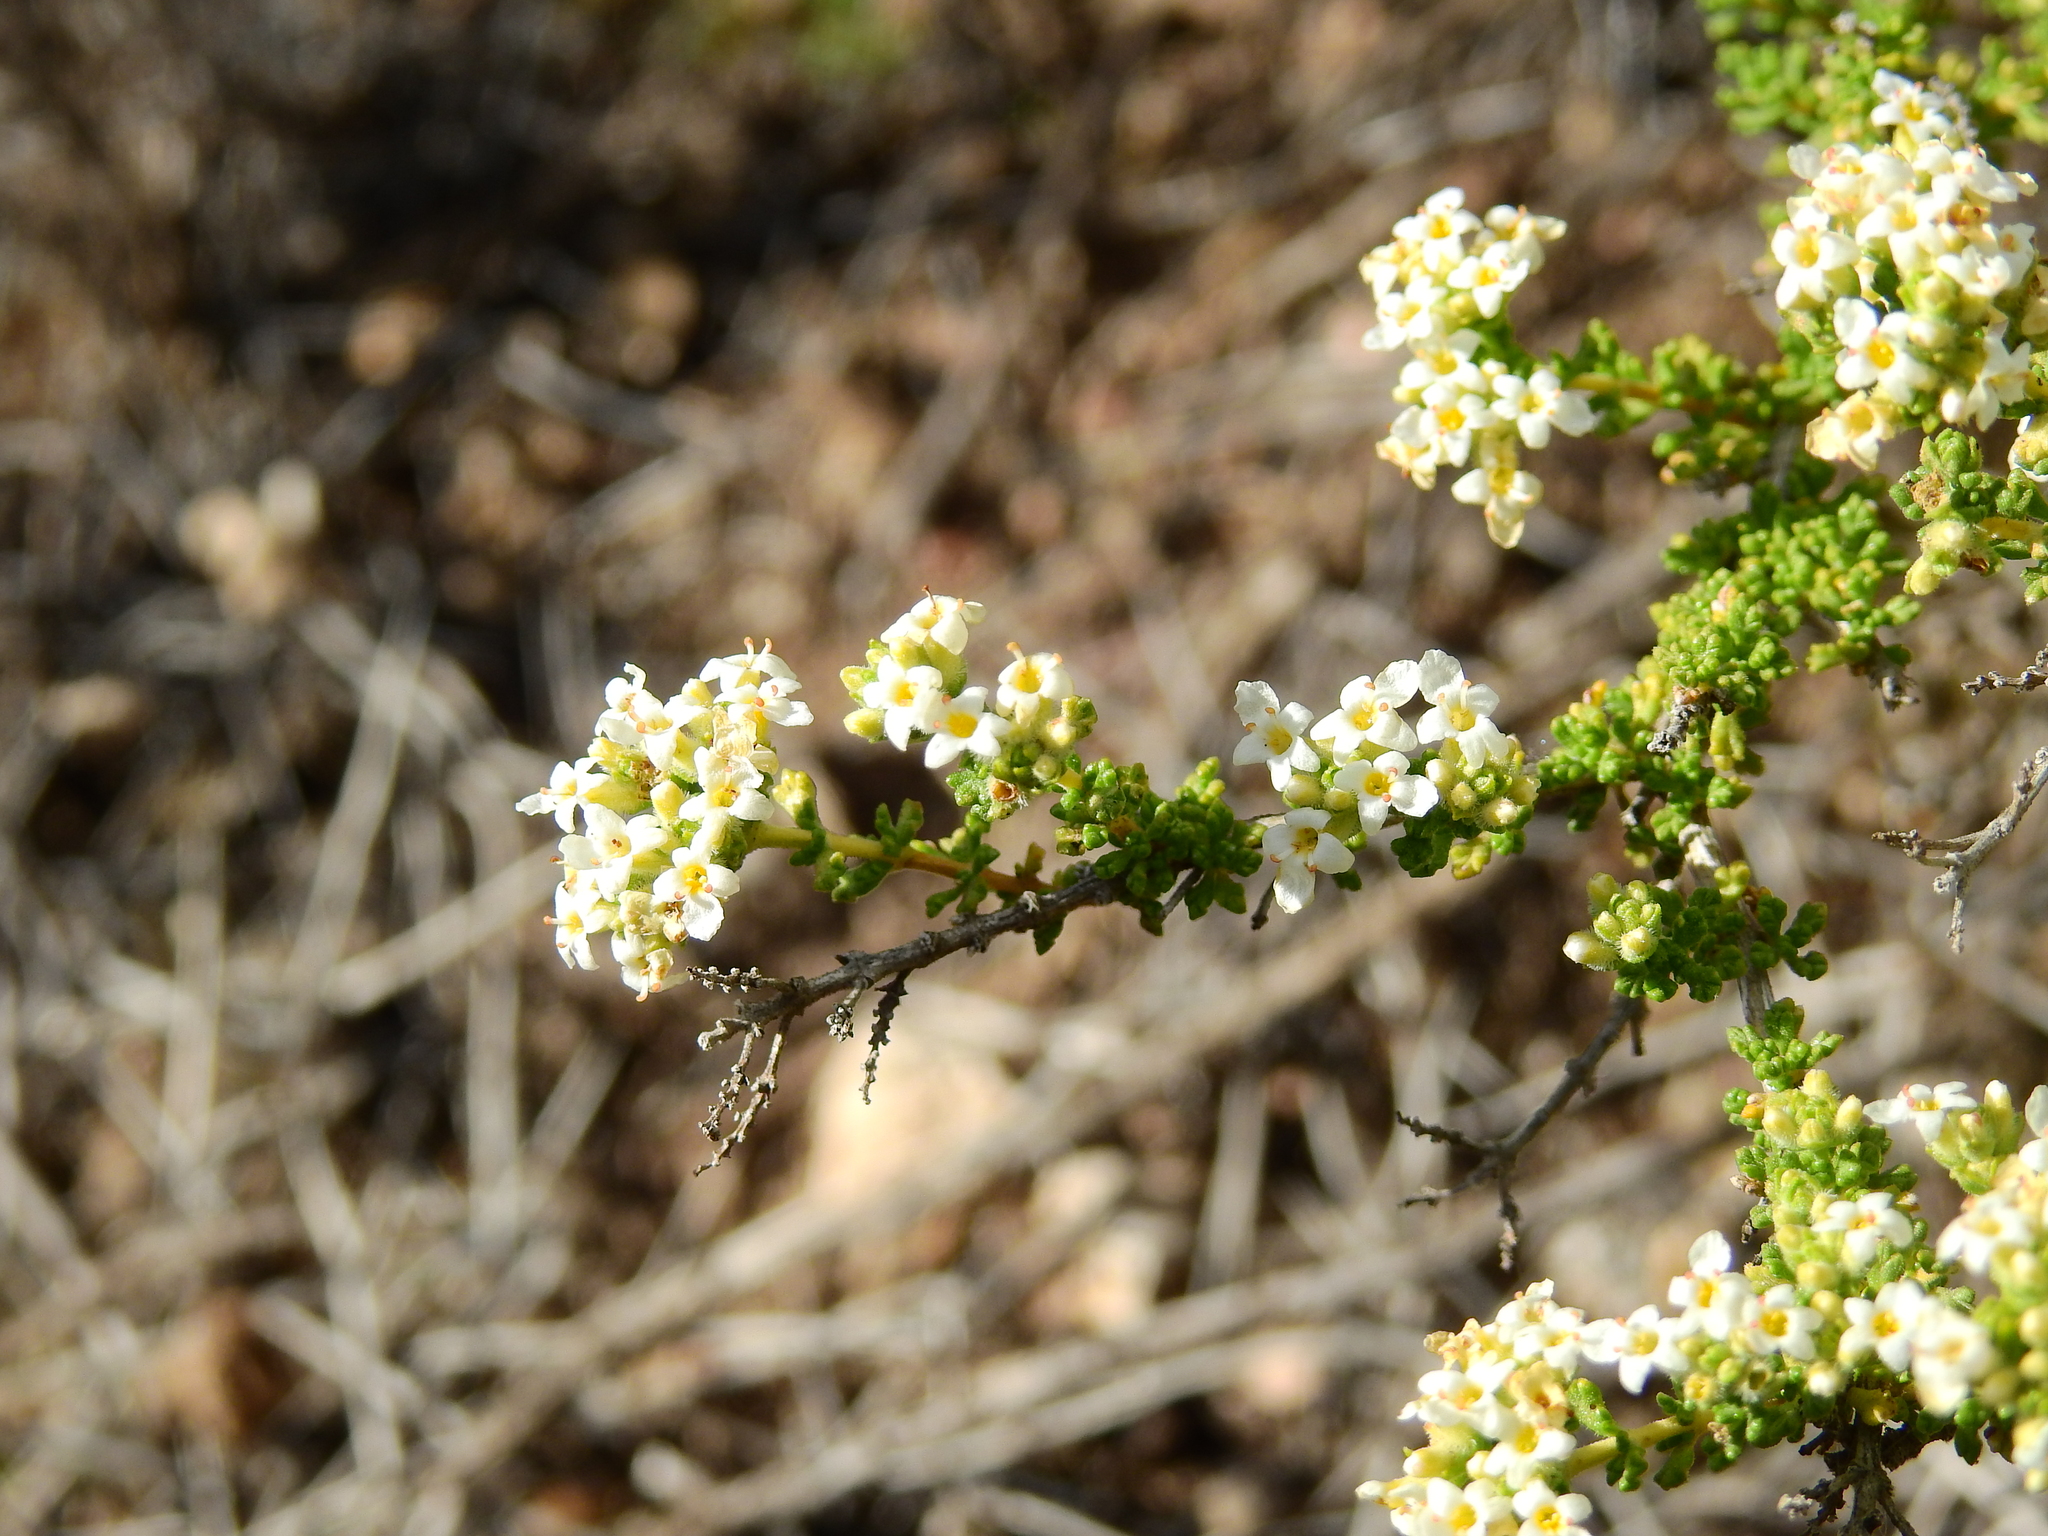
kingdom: Plantae
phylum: Tracheophyta
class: Magnoliopsida
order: Lamiales
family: Verbenaceae
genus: Acantholippia
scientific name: Acantholippia seriphioides
